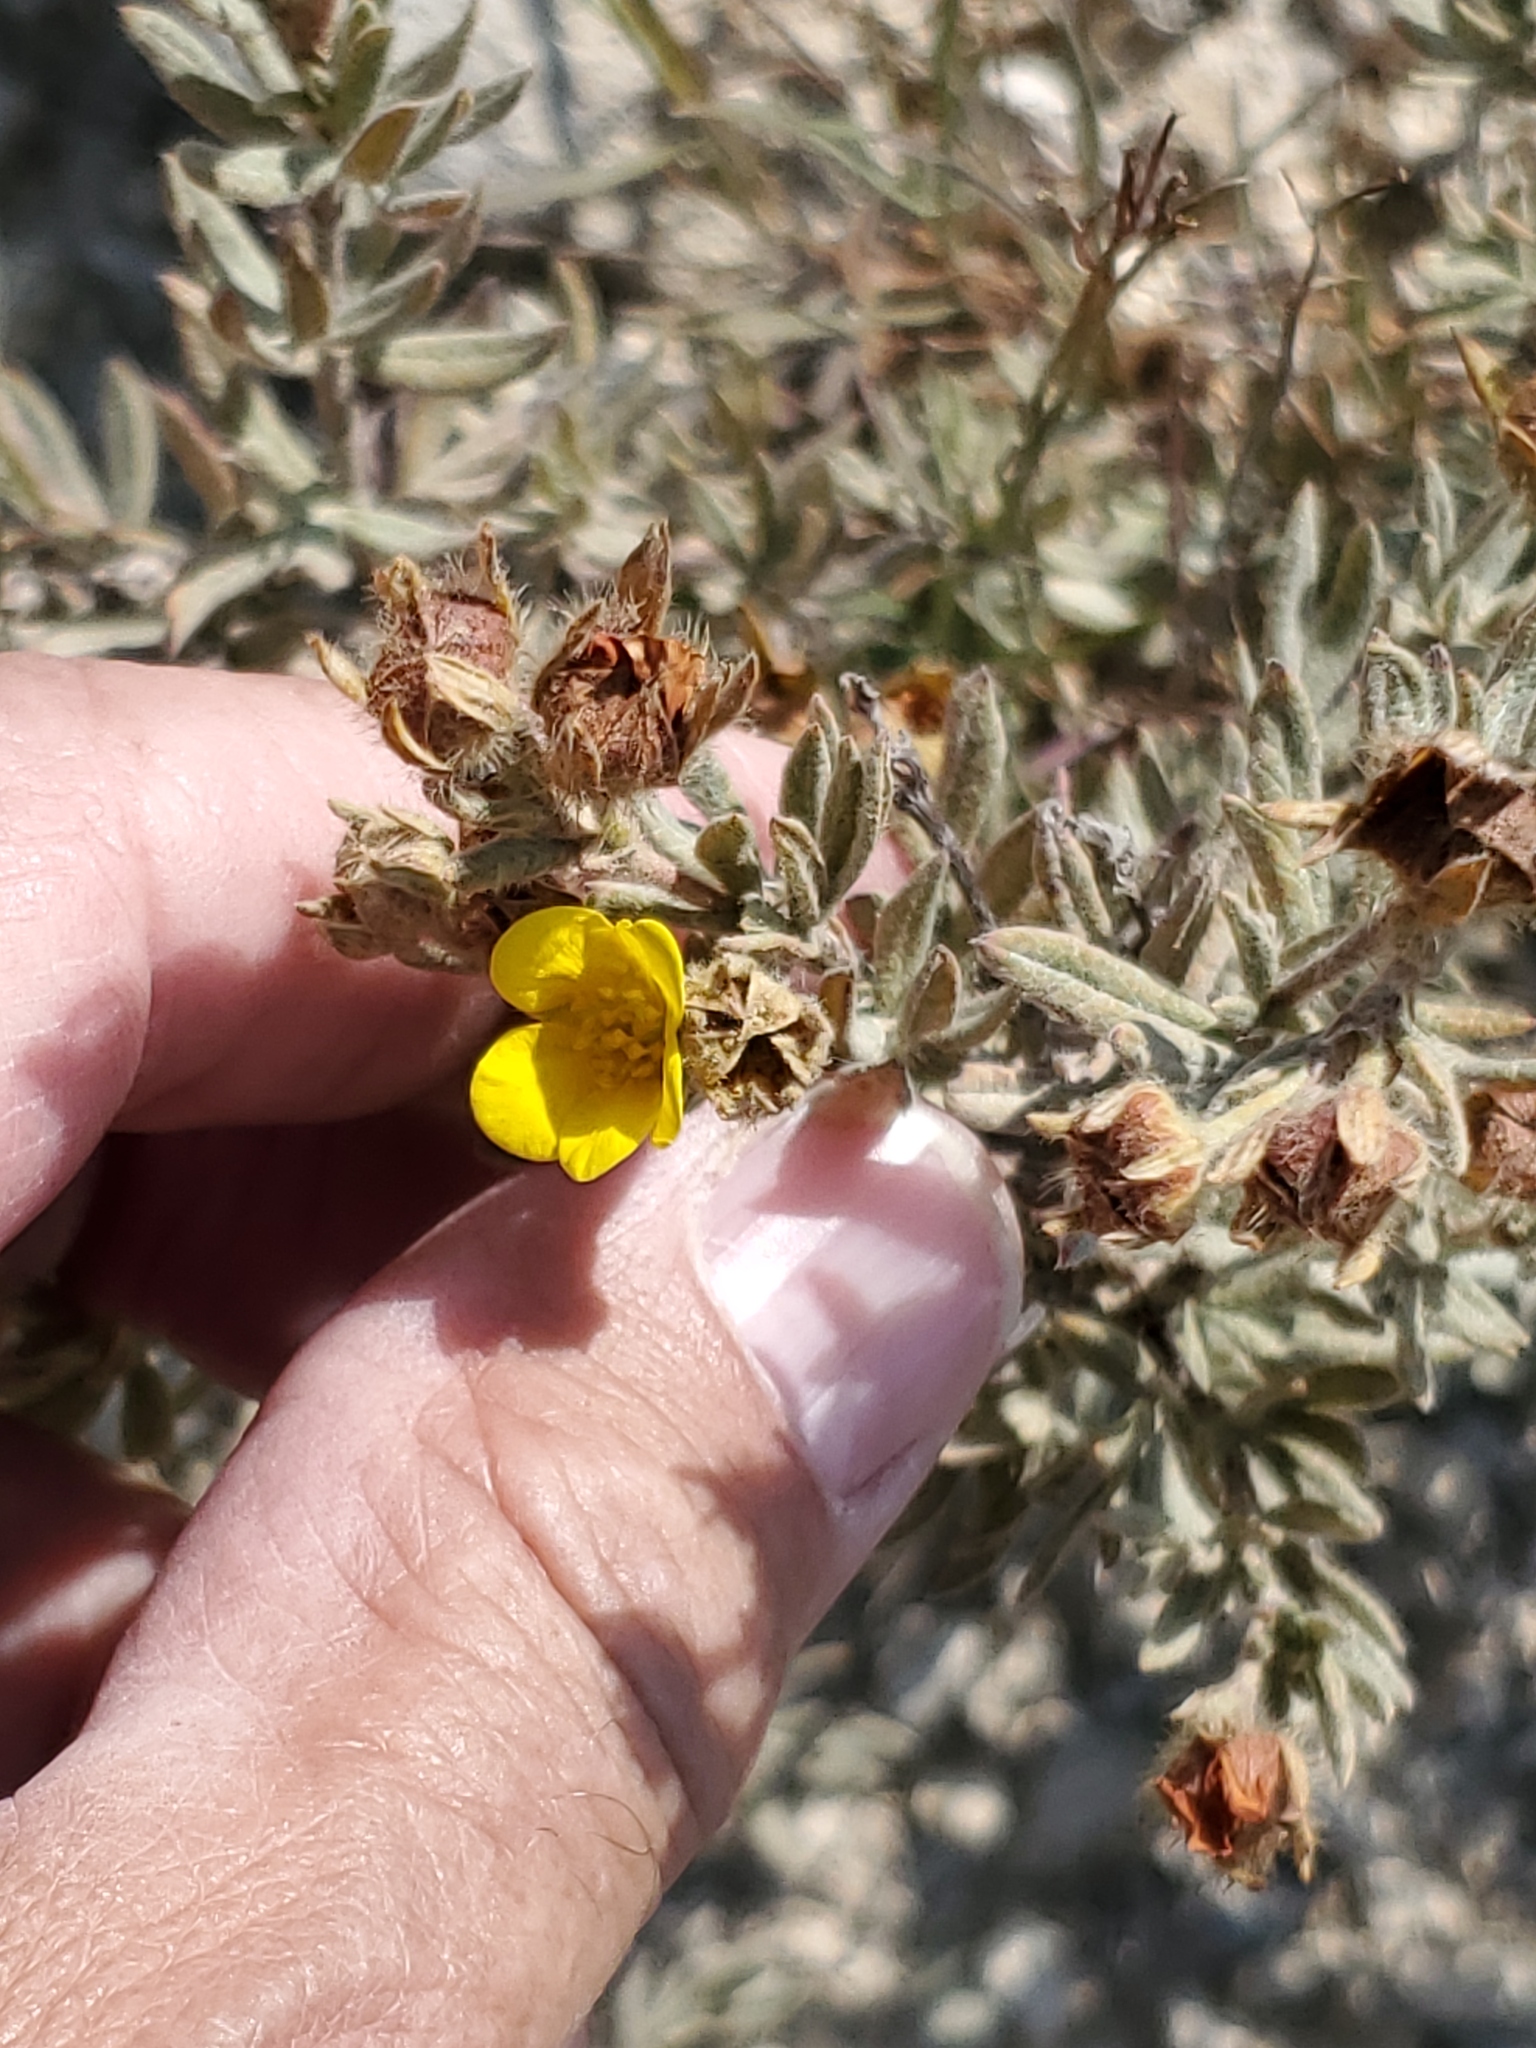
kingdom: Plantae
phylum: Tracheophyta
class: Magnoliopsida
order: Rosales
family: Rosaceae
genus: Dasiphora
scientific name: Dasiphora fruticosa
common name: Shrubby cinquefoil
